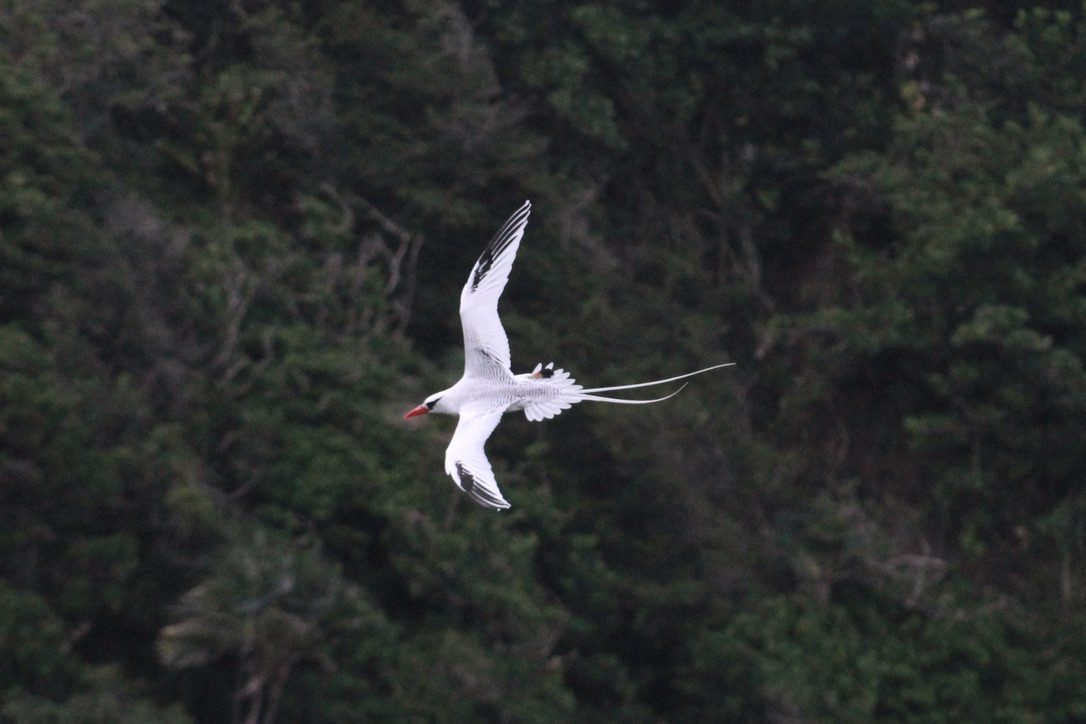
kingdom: Animalia
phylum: Chordata
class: Aves
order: Phaethontiformes
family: Phaethontidae
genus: Phaethon
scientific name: Phaethon aethereus
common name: Red-billed tropicbird
